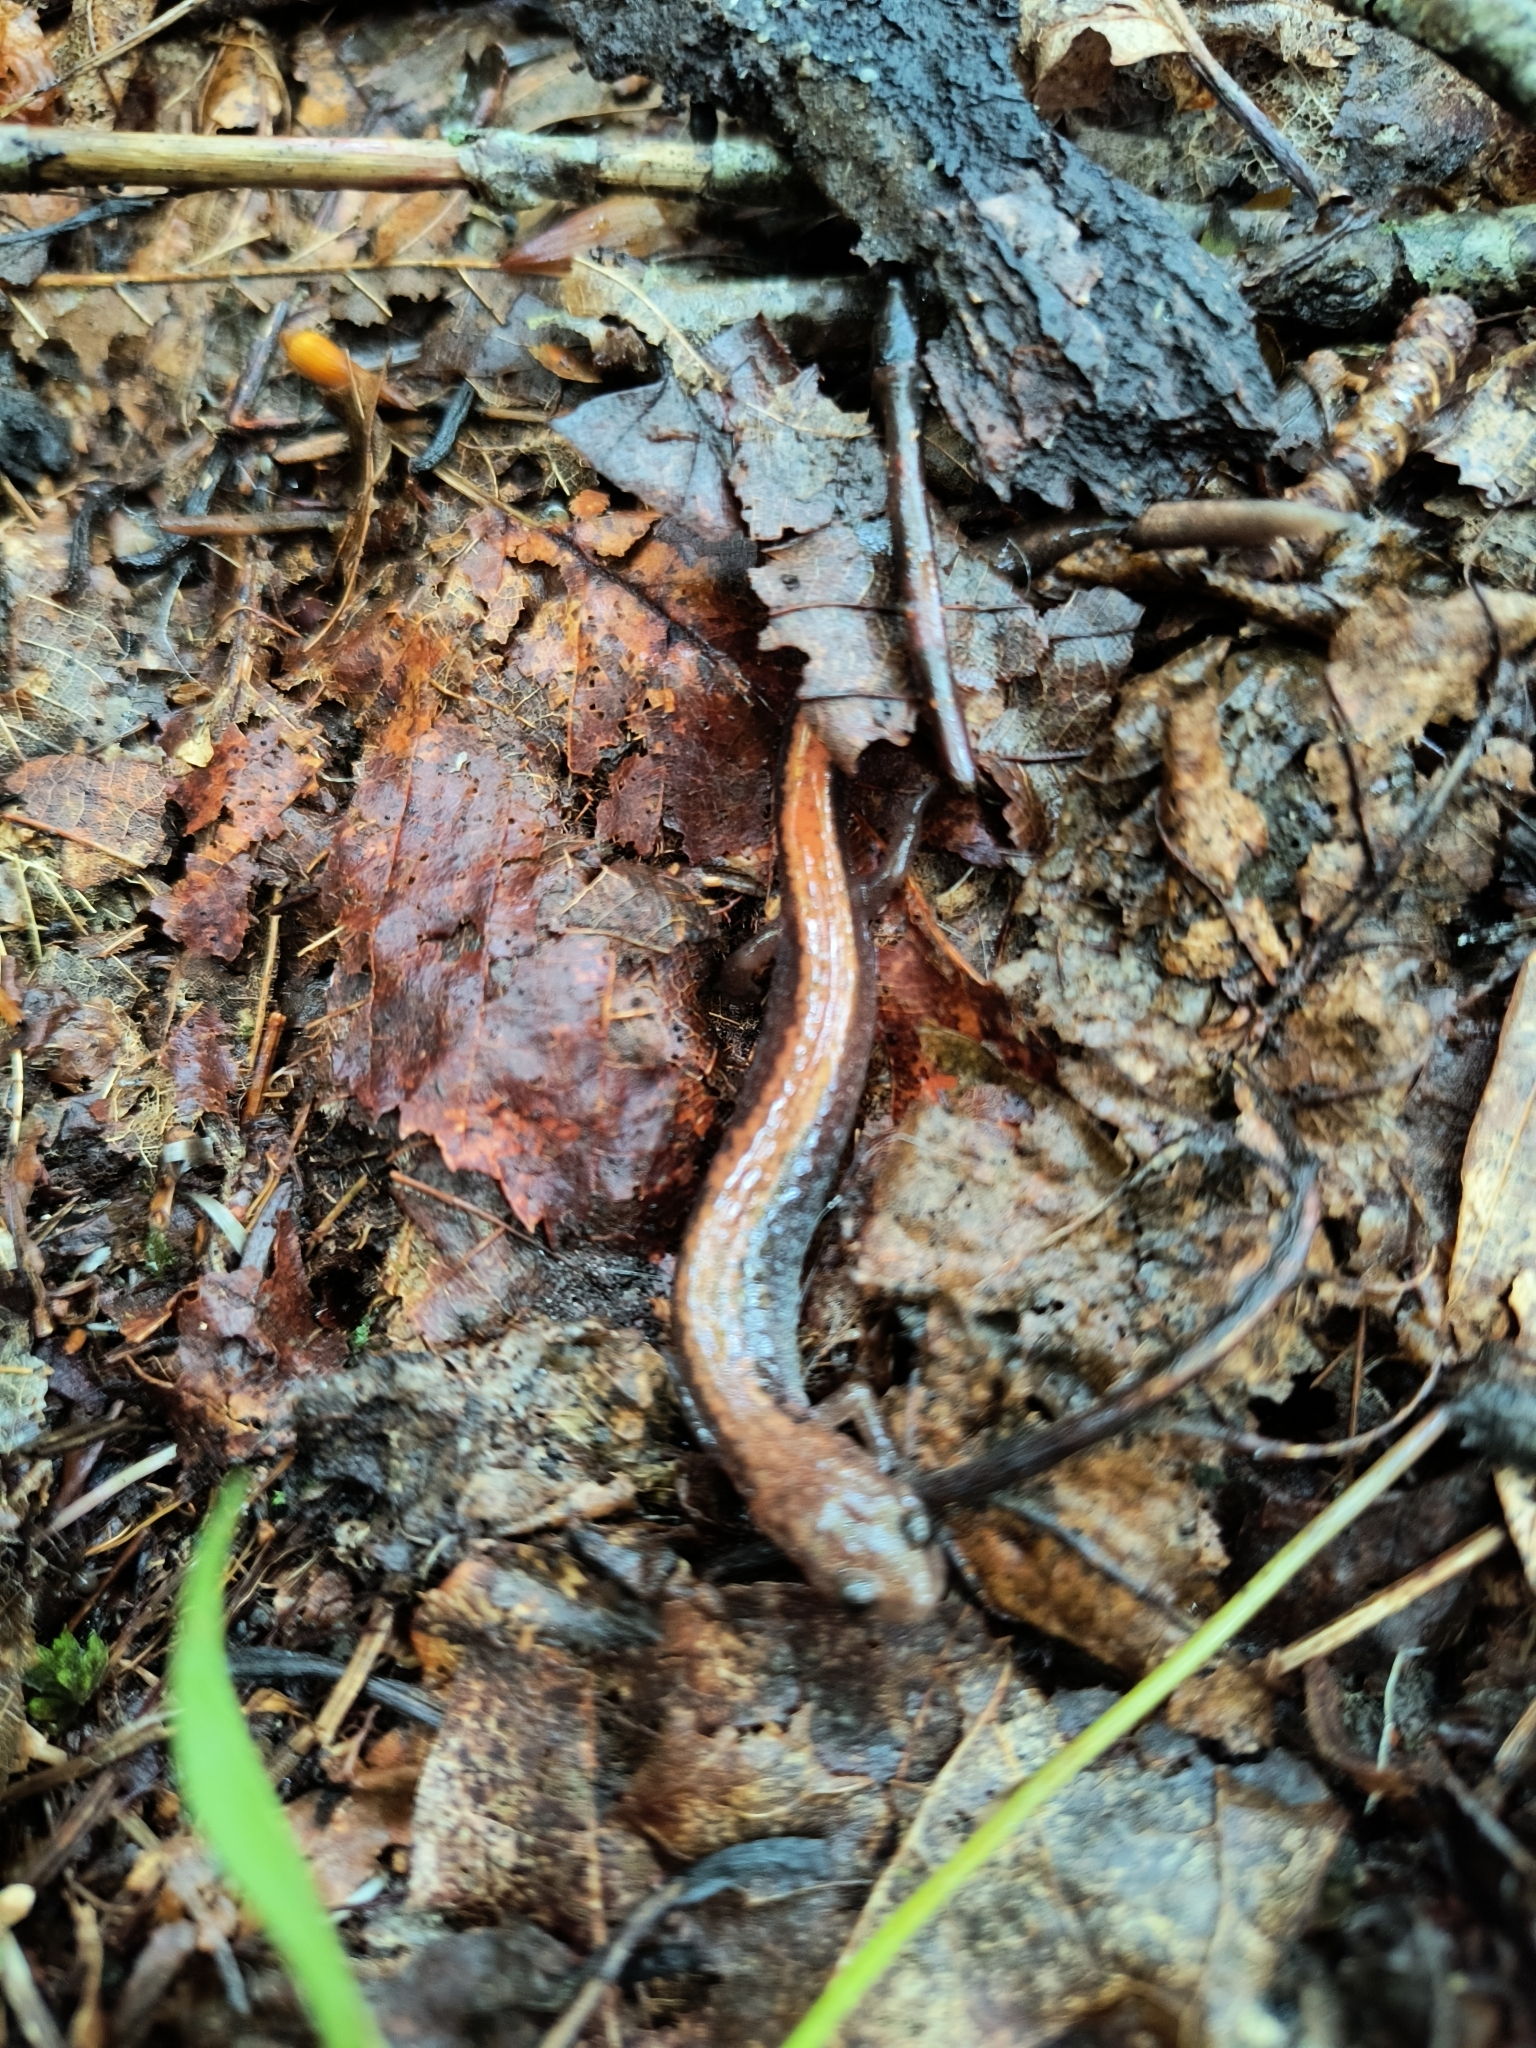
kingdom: Animalia
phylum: Chordata
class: Amphibia
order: Caudata
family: Plethodontidae
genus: Plethodon
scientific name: Plethodon cinereus
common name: Redback salamander
